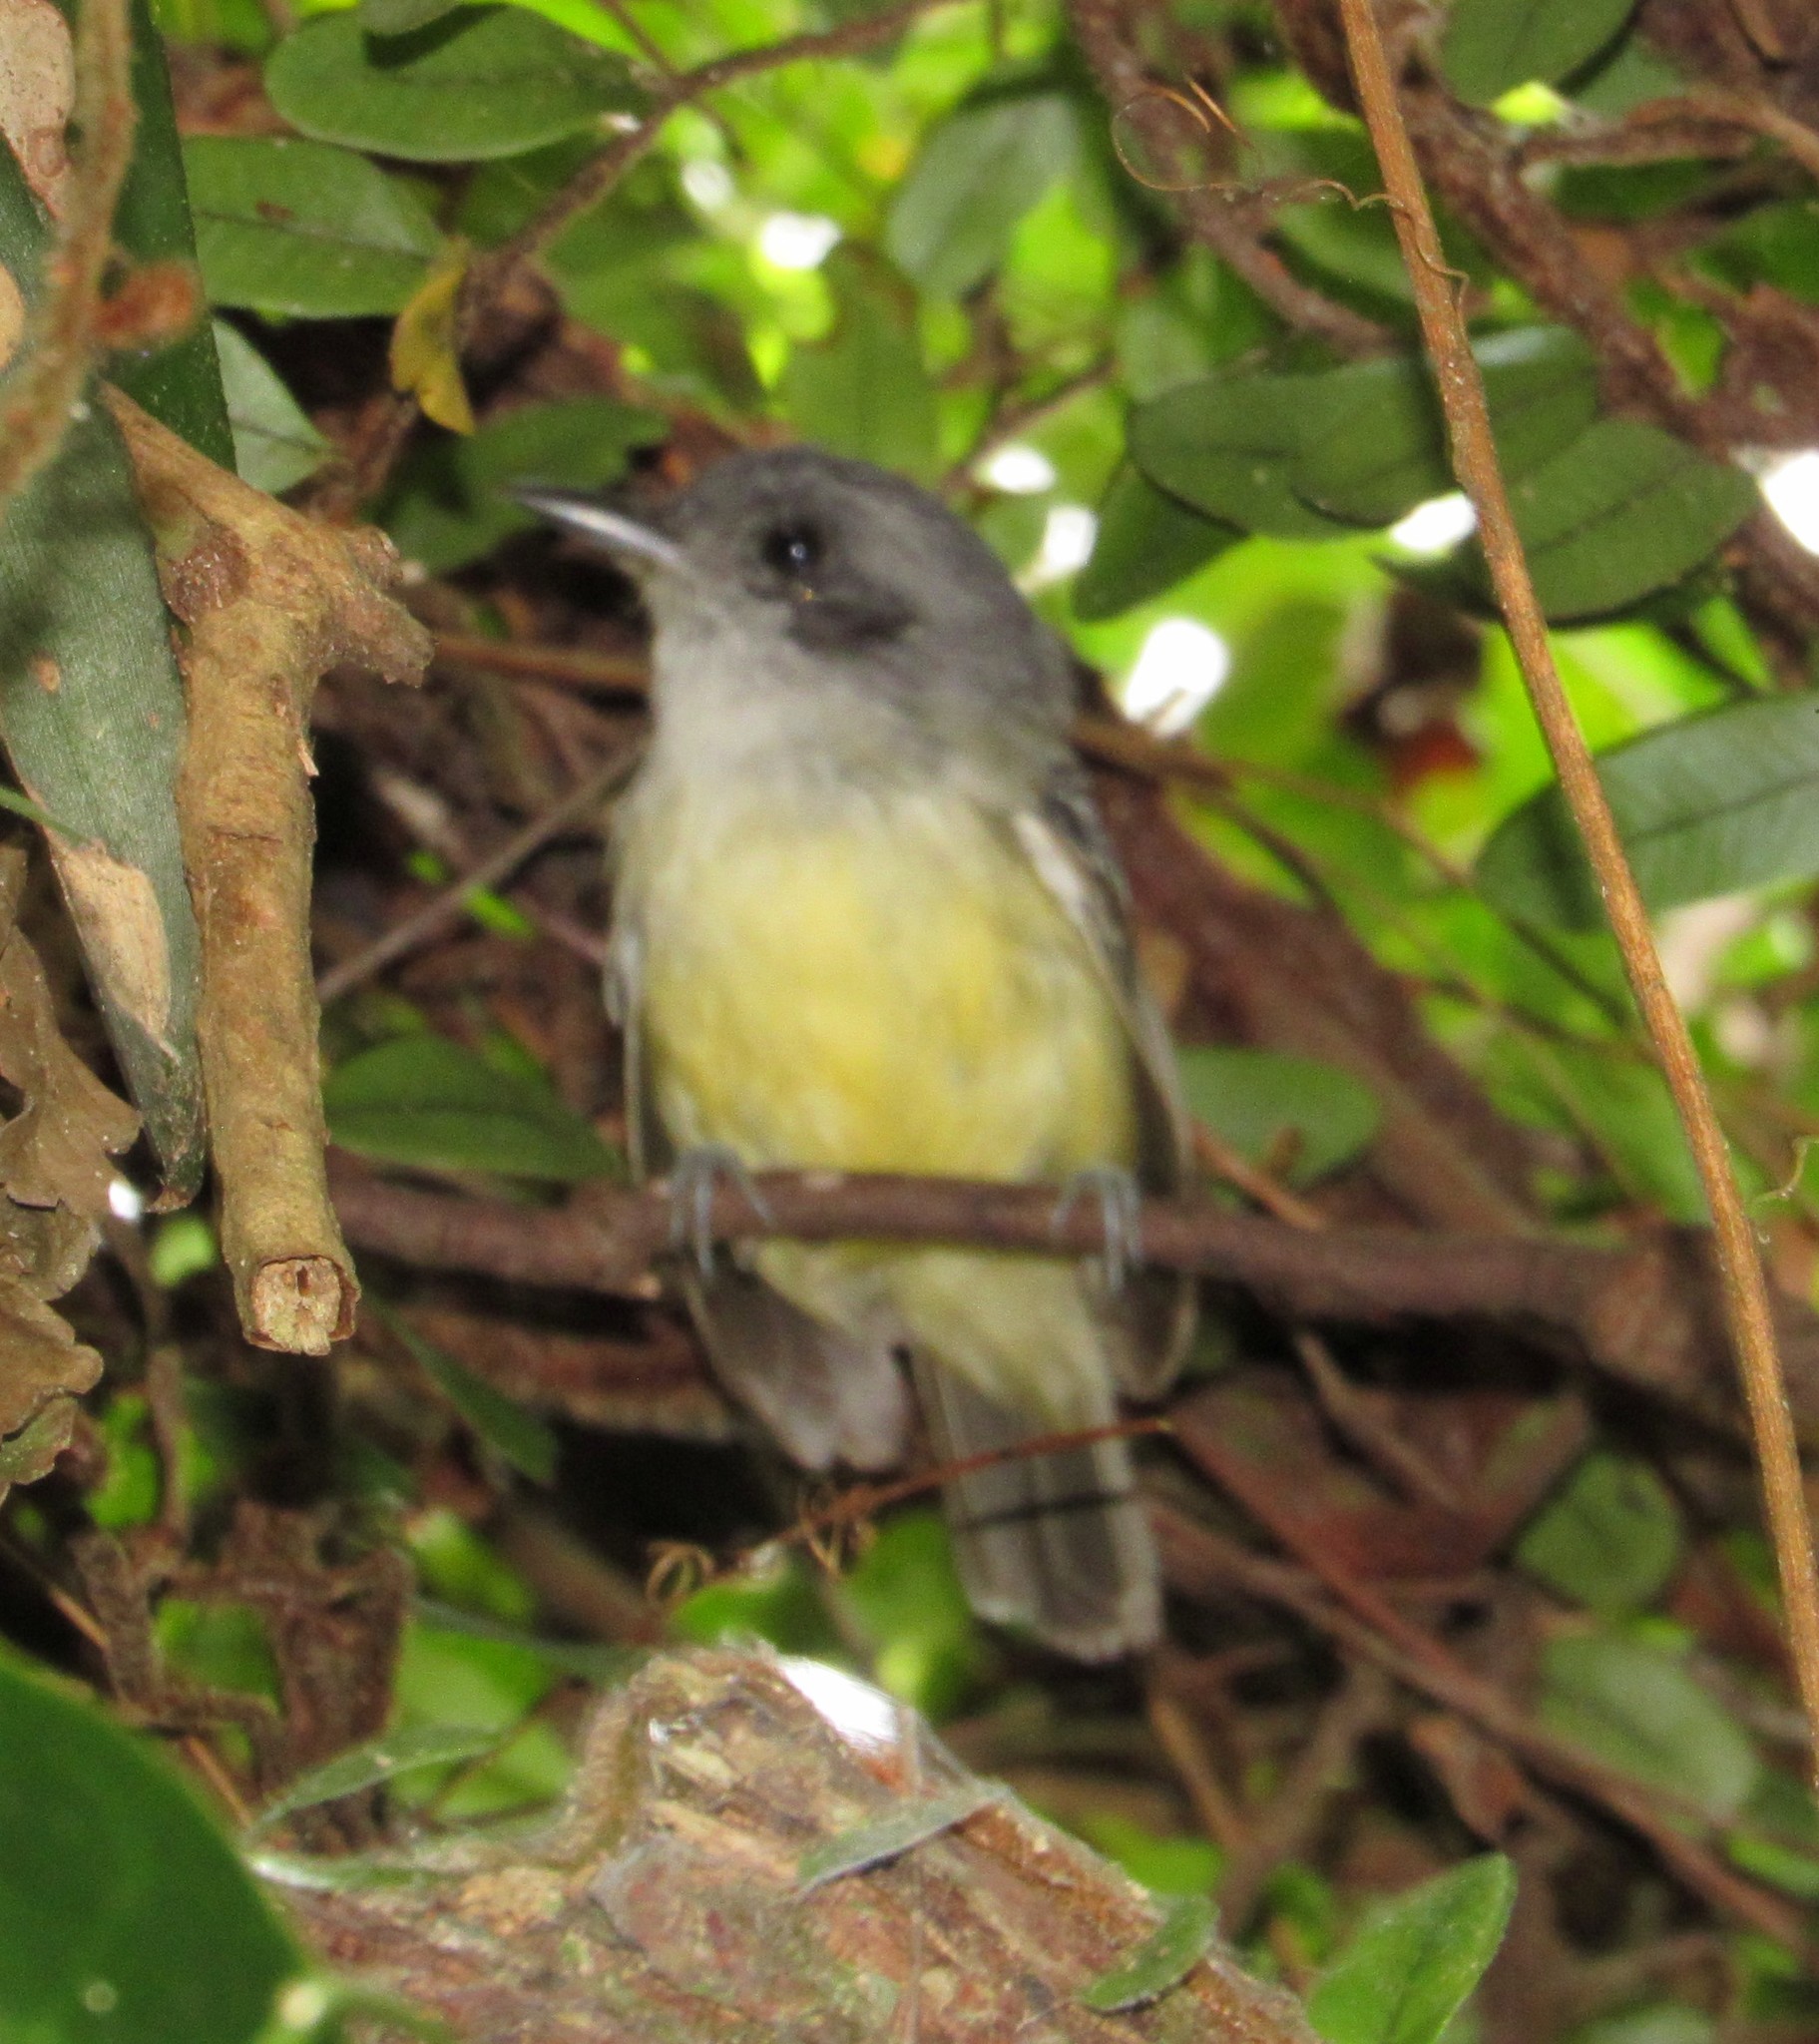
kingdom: Animalia
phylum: Chordata
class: Aves
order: Passeriformes
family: Thamnophilidae
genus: Dysithamnus
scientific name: Dysithamnus mentalis
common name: Plain antvireo
